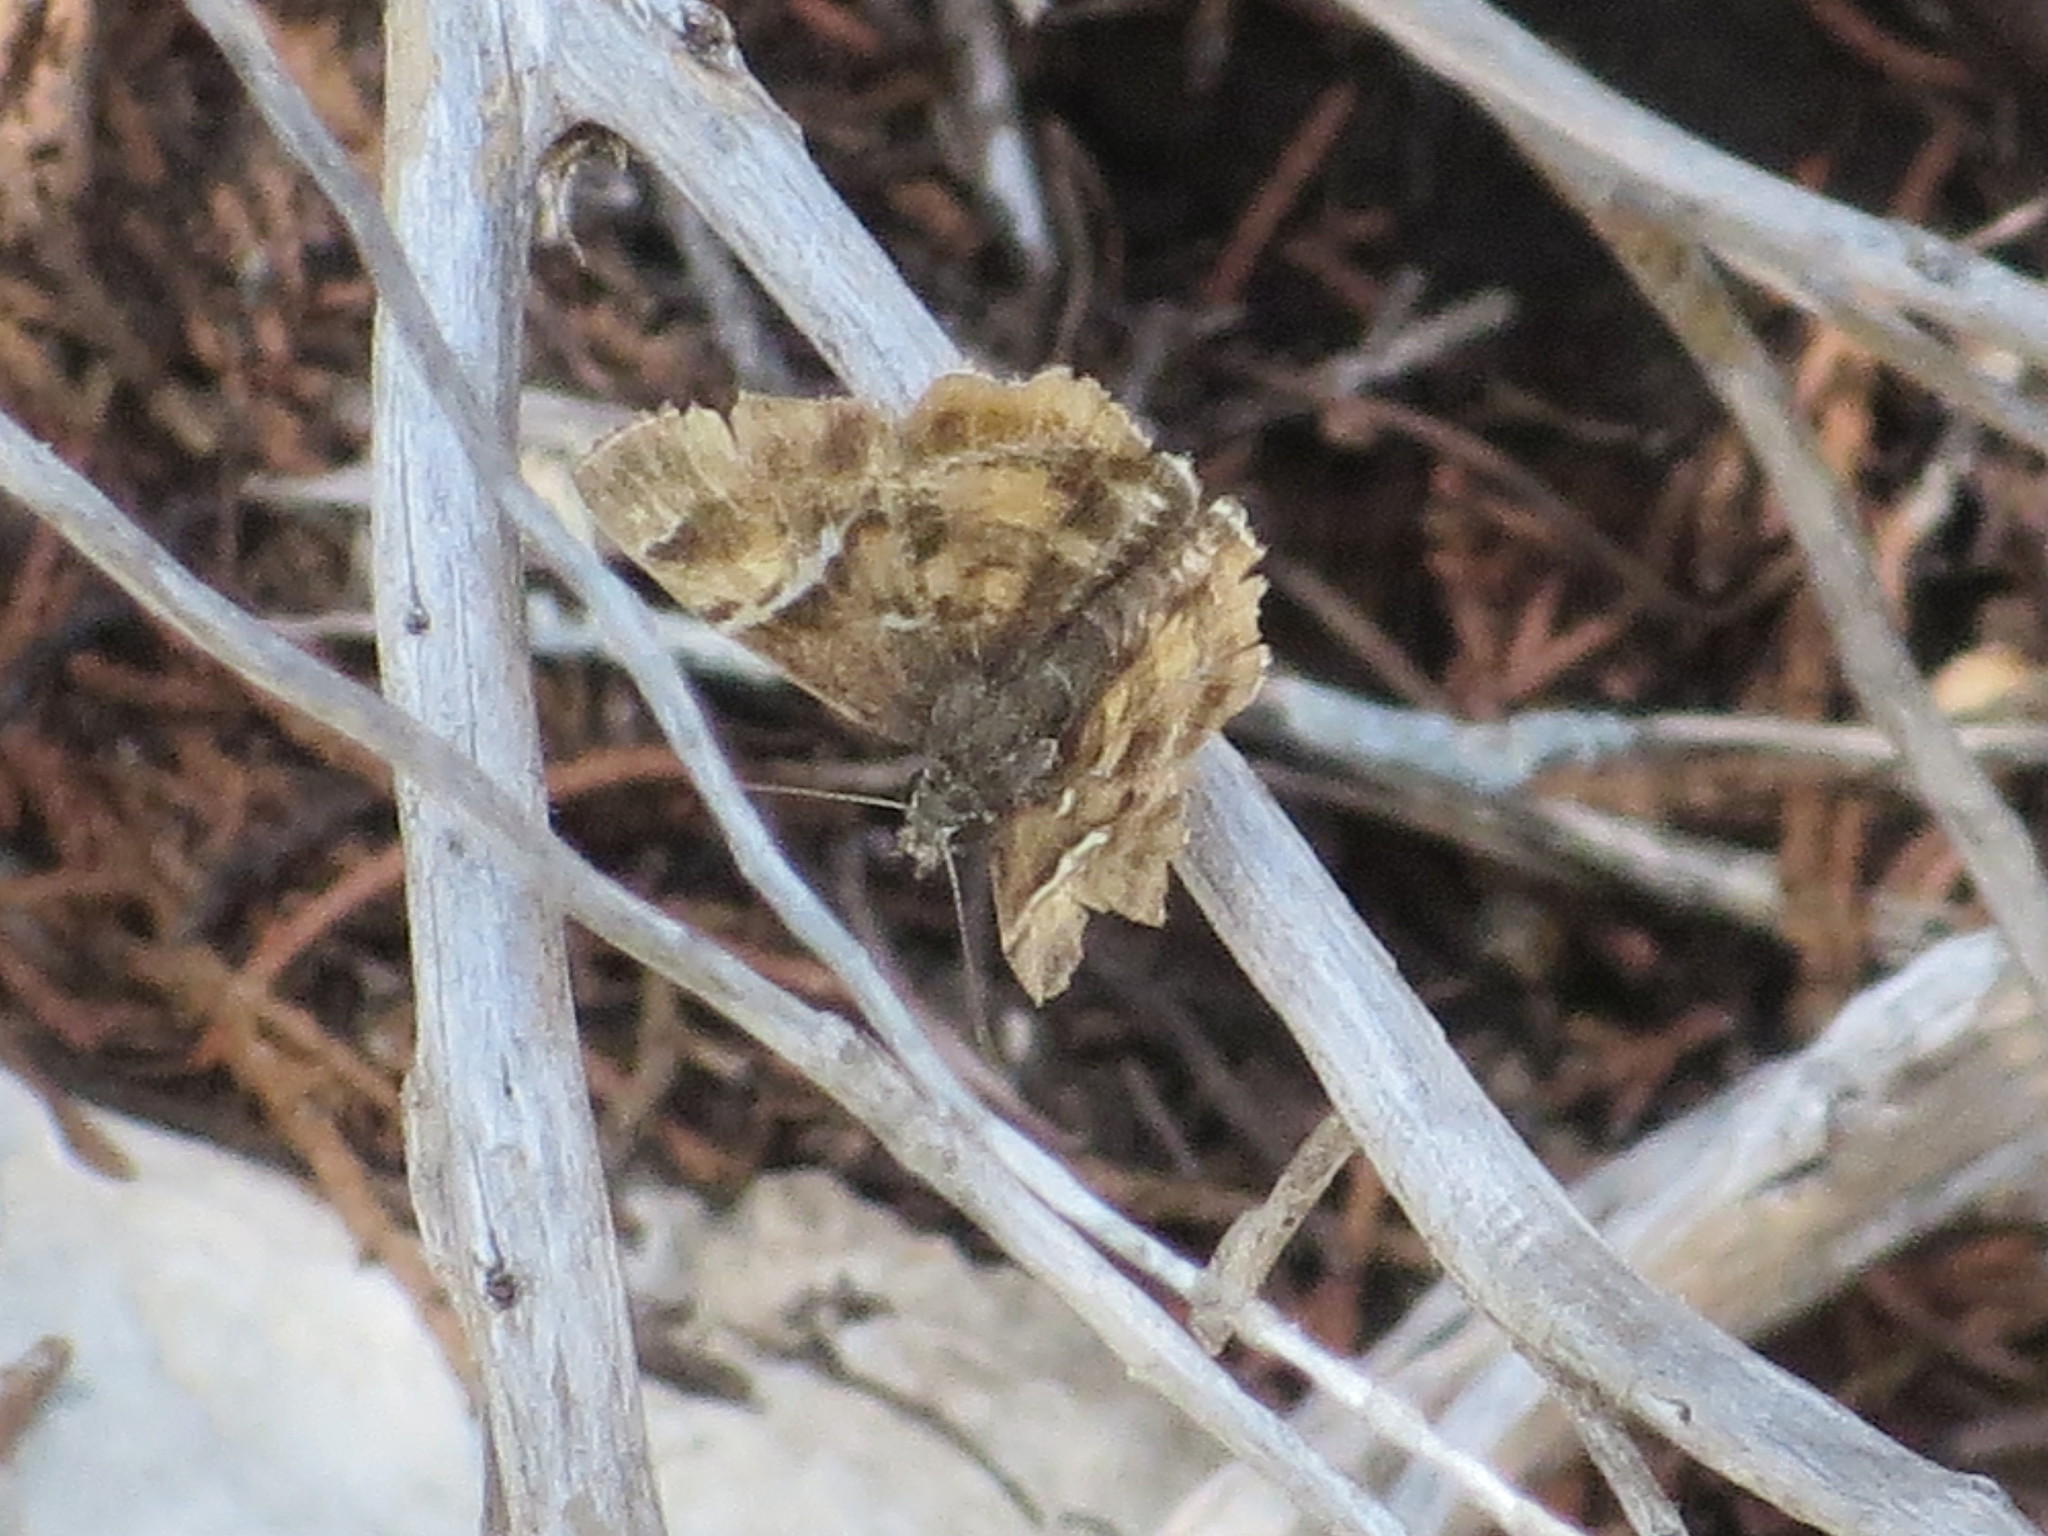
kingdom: Animalia
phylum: Arthropoda
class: Insecta
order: Lepidoptera
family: Hesperiidae
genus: Systasea
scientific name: Systasea pulverulenta
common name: Texas powdered skipper
